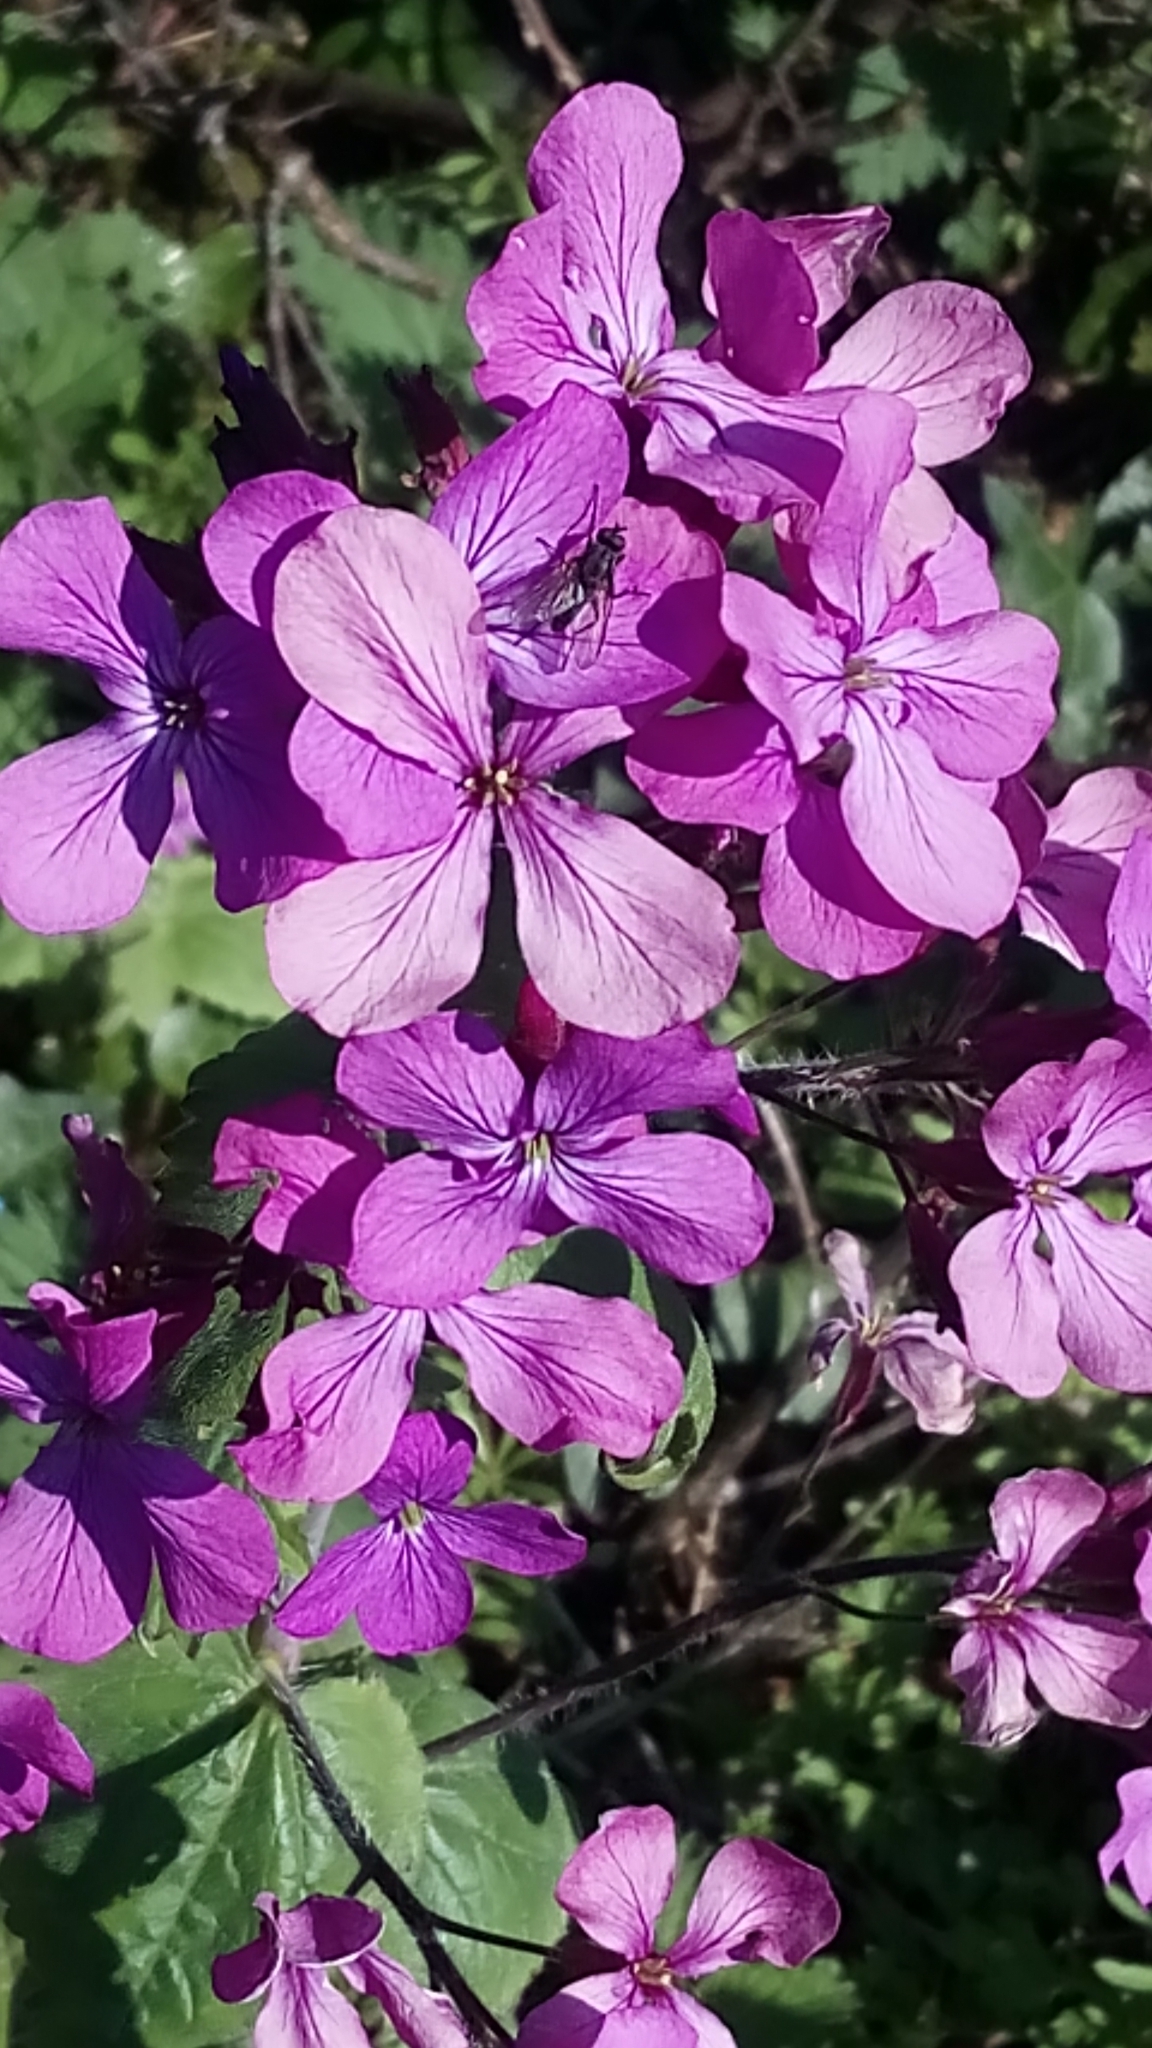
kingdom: Plantae
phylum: Tracheophyta
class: Magnoliopsida
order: Brassicales
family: Brassicaceae
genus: Lunaria
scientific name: Lunaria annua
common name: Honesty
